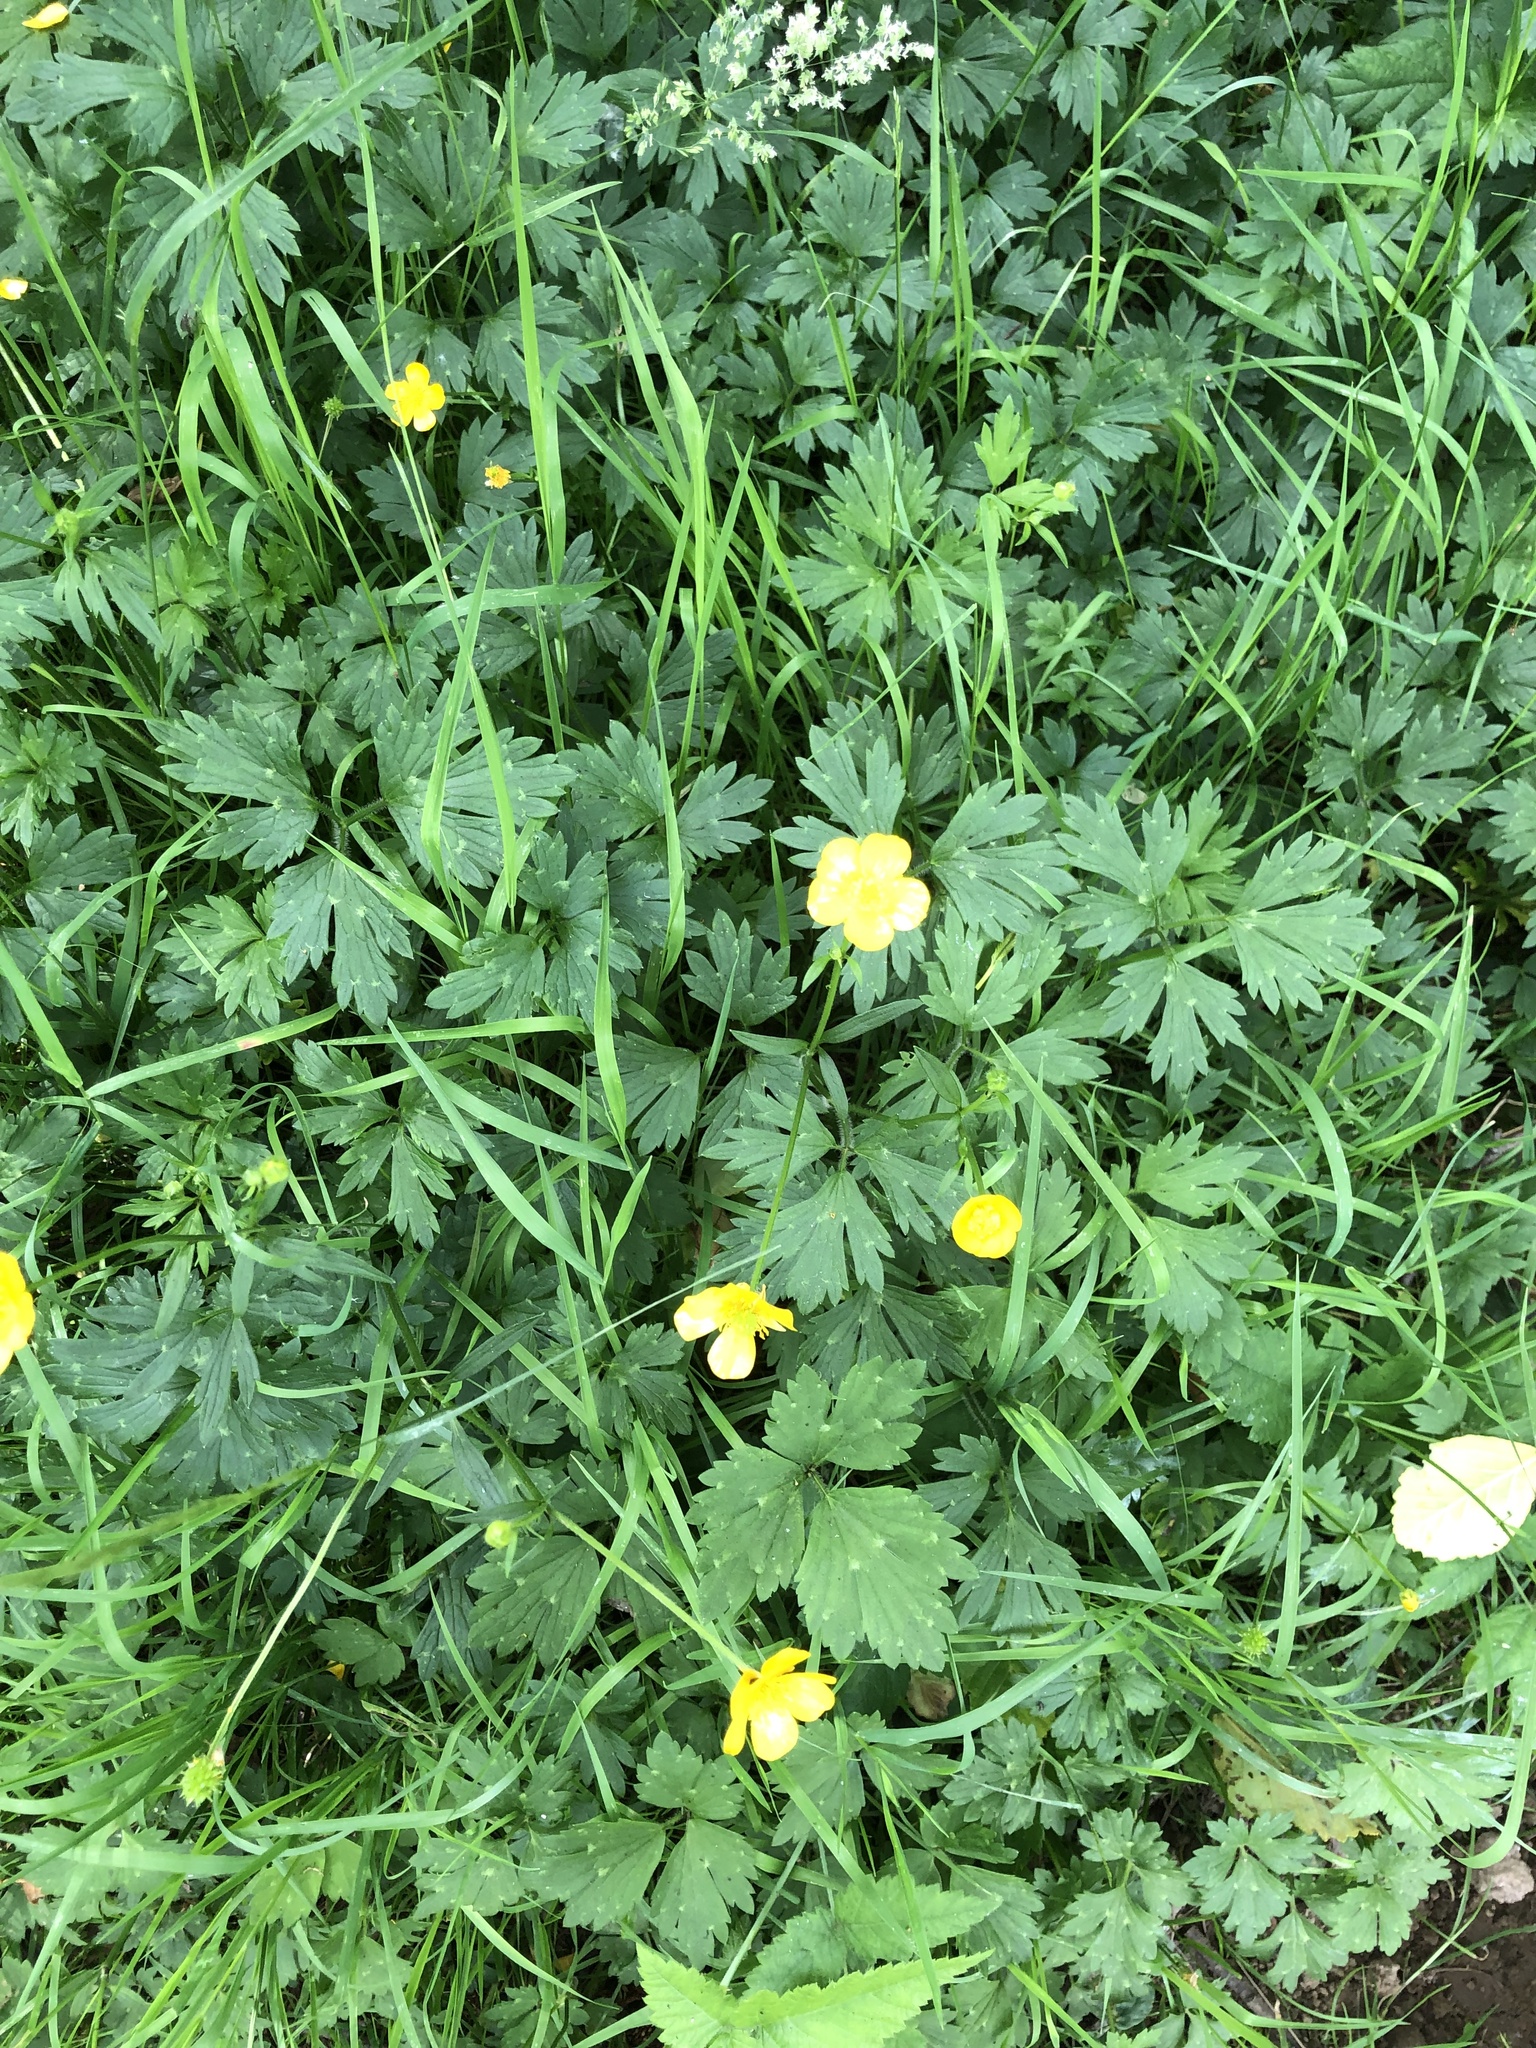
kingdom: Plantae
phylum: Tracheophyta
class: Magnoliopsida
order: Ranunculales
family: Ranunculaceae
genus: Ranunculus
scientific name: Ranunculus repens
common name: Creeping buttercup
